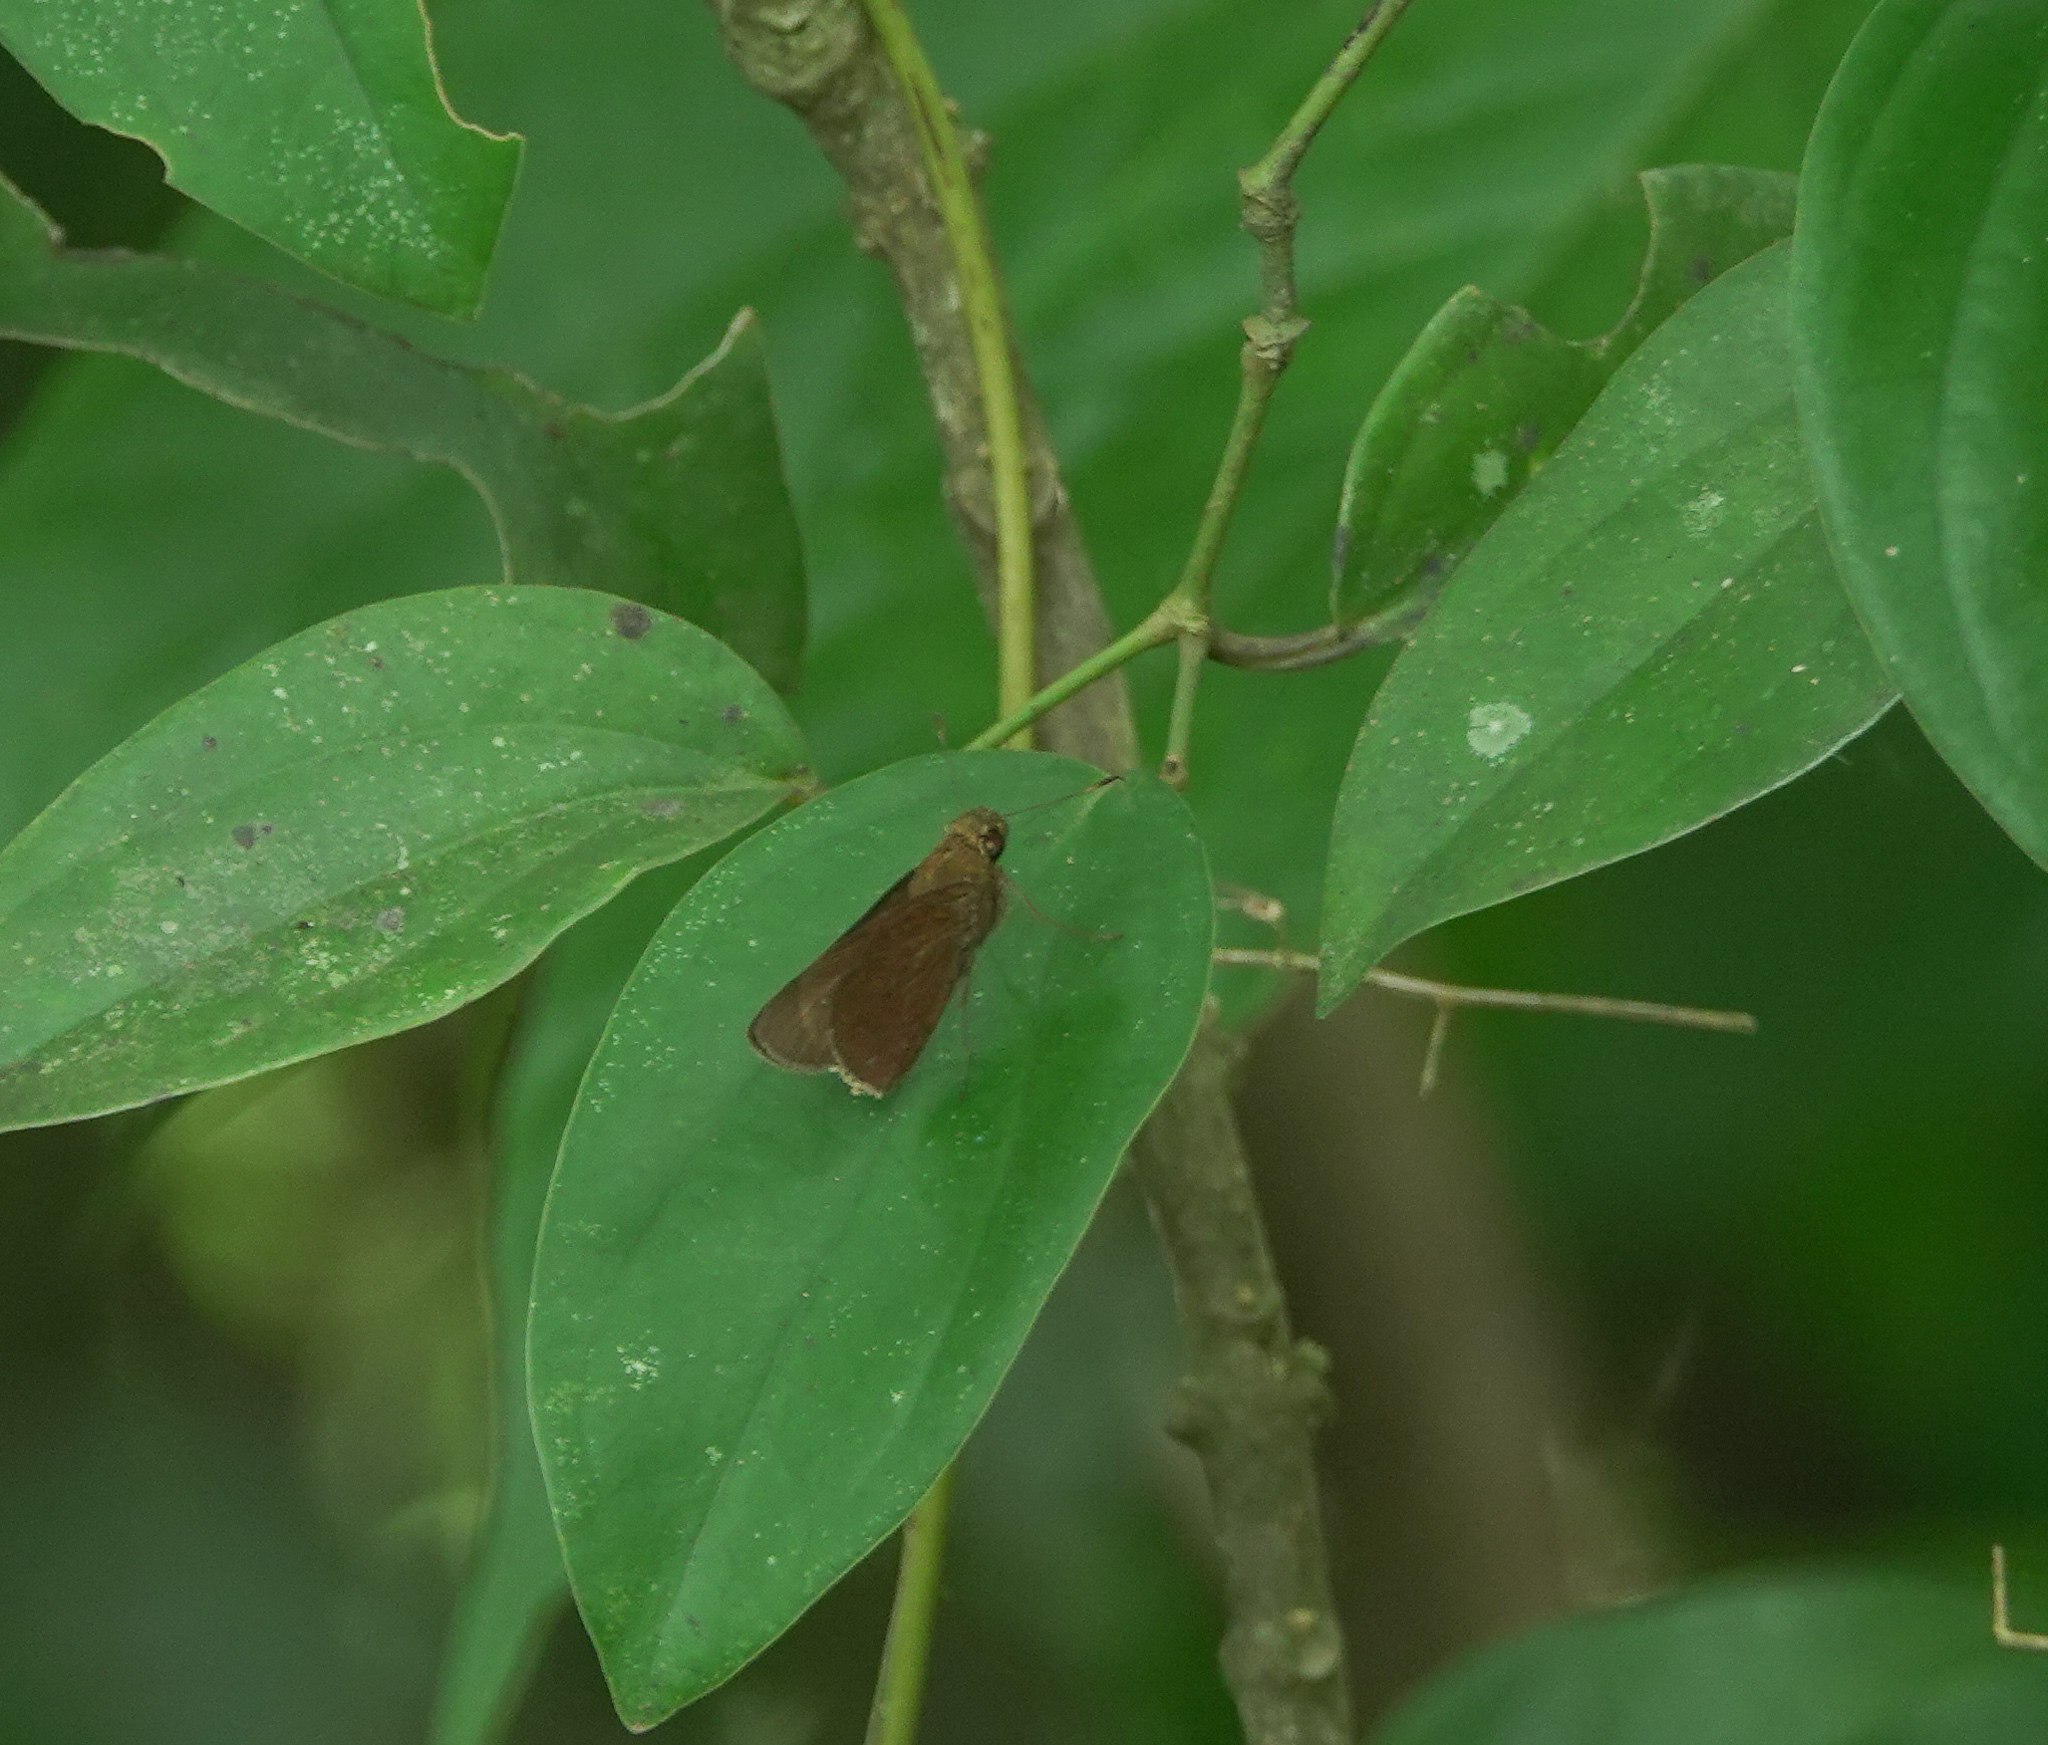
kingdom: Animalia
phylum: Arthropoda
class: Insecta
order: Lepidoptera
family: Hesperiidae
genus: Matapa
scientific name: Matapa aria
